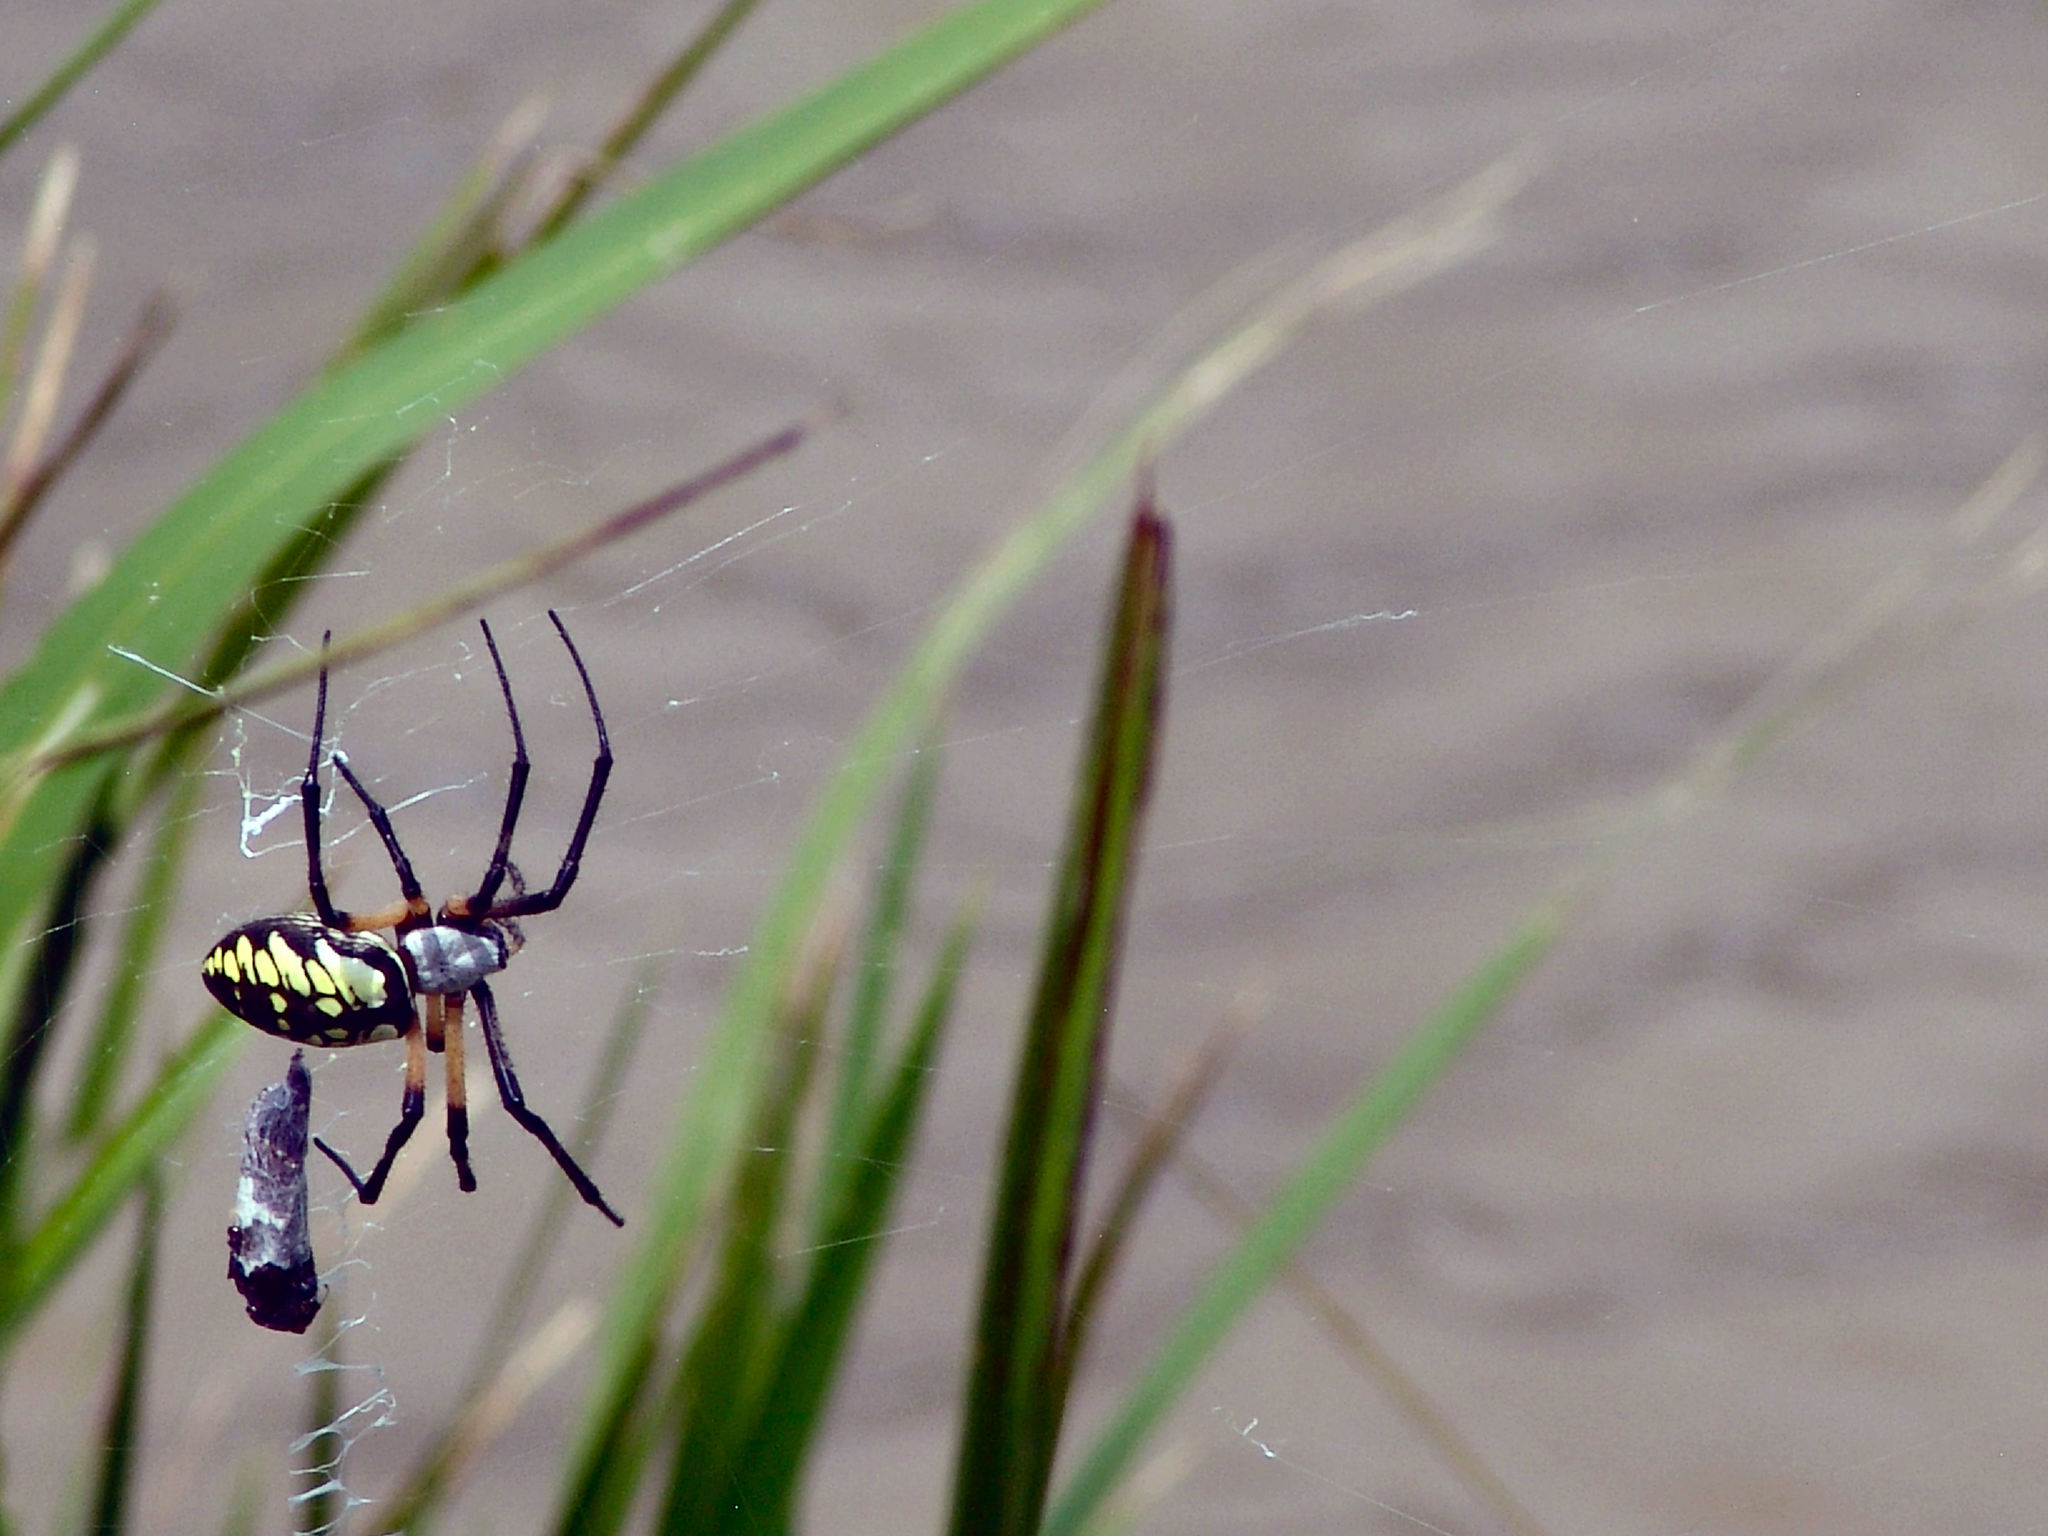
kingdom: Animalia
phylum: Arthropoda
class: Arachnida
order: Araneae
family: Araneidae
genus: Argiope
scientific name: Argiope aurantia
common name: Orb weavers
